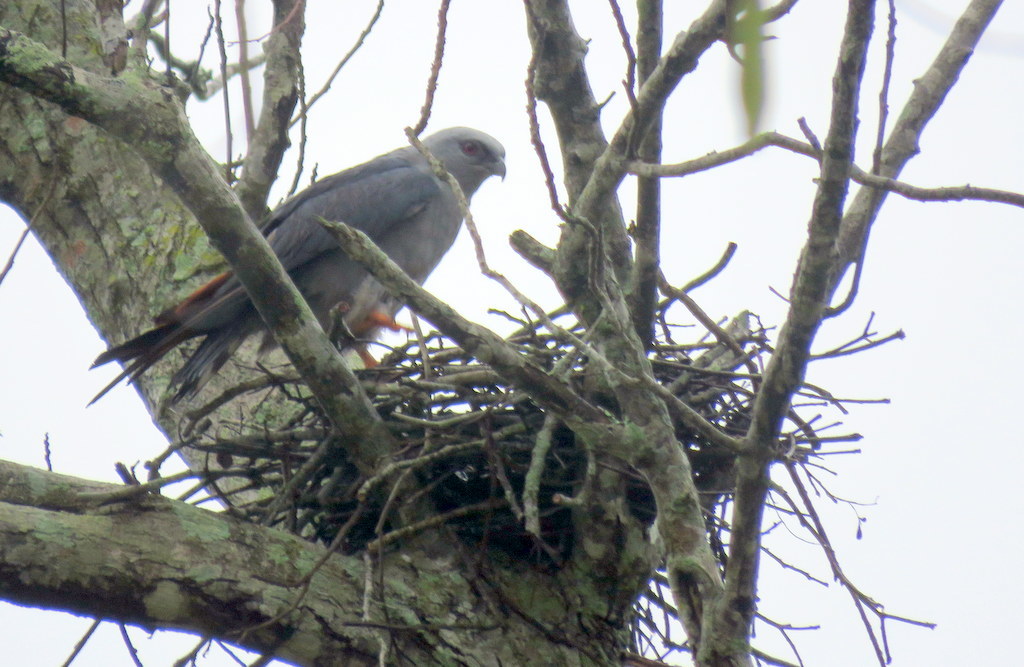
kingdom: Animalia
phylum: Chordata
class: Aves
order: Accipitriformes
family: Accipitridae
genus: Ictinia
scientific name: Ictinia plumbea
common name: Plumbeous kite
